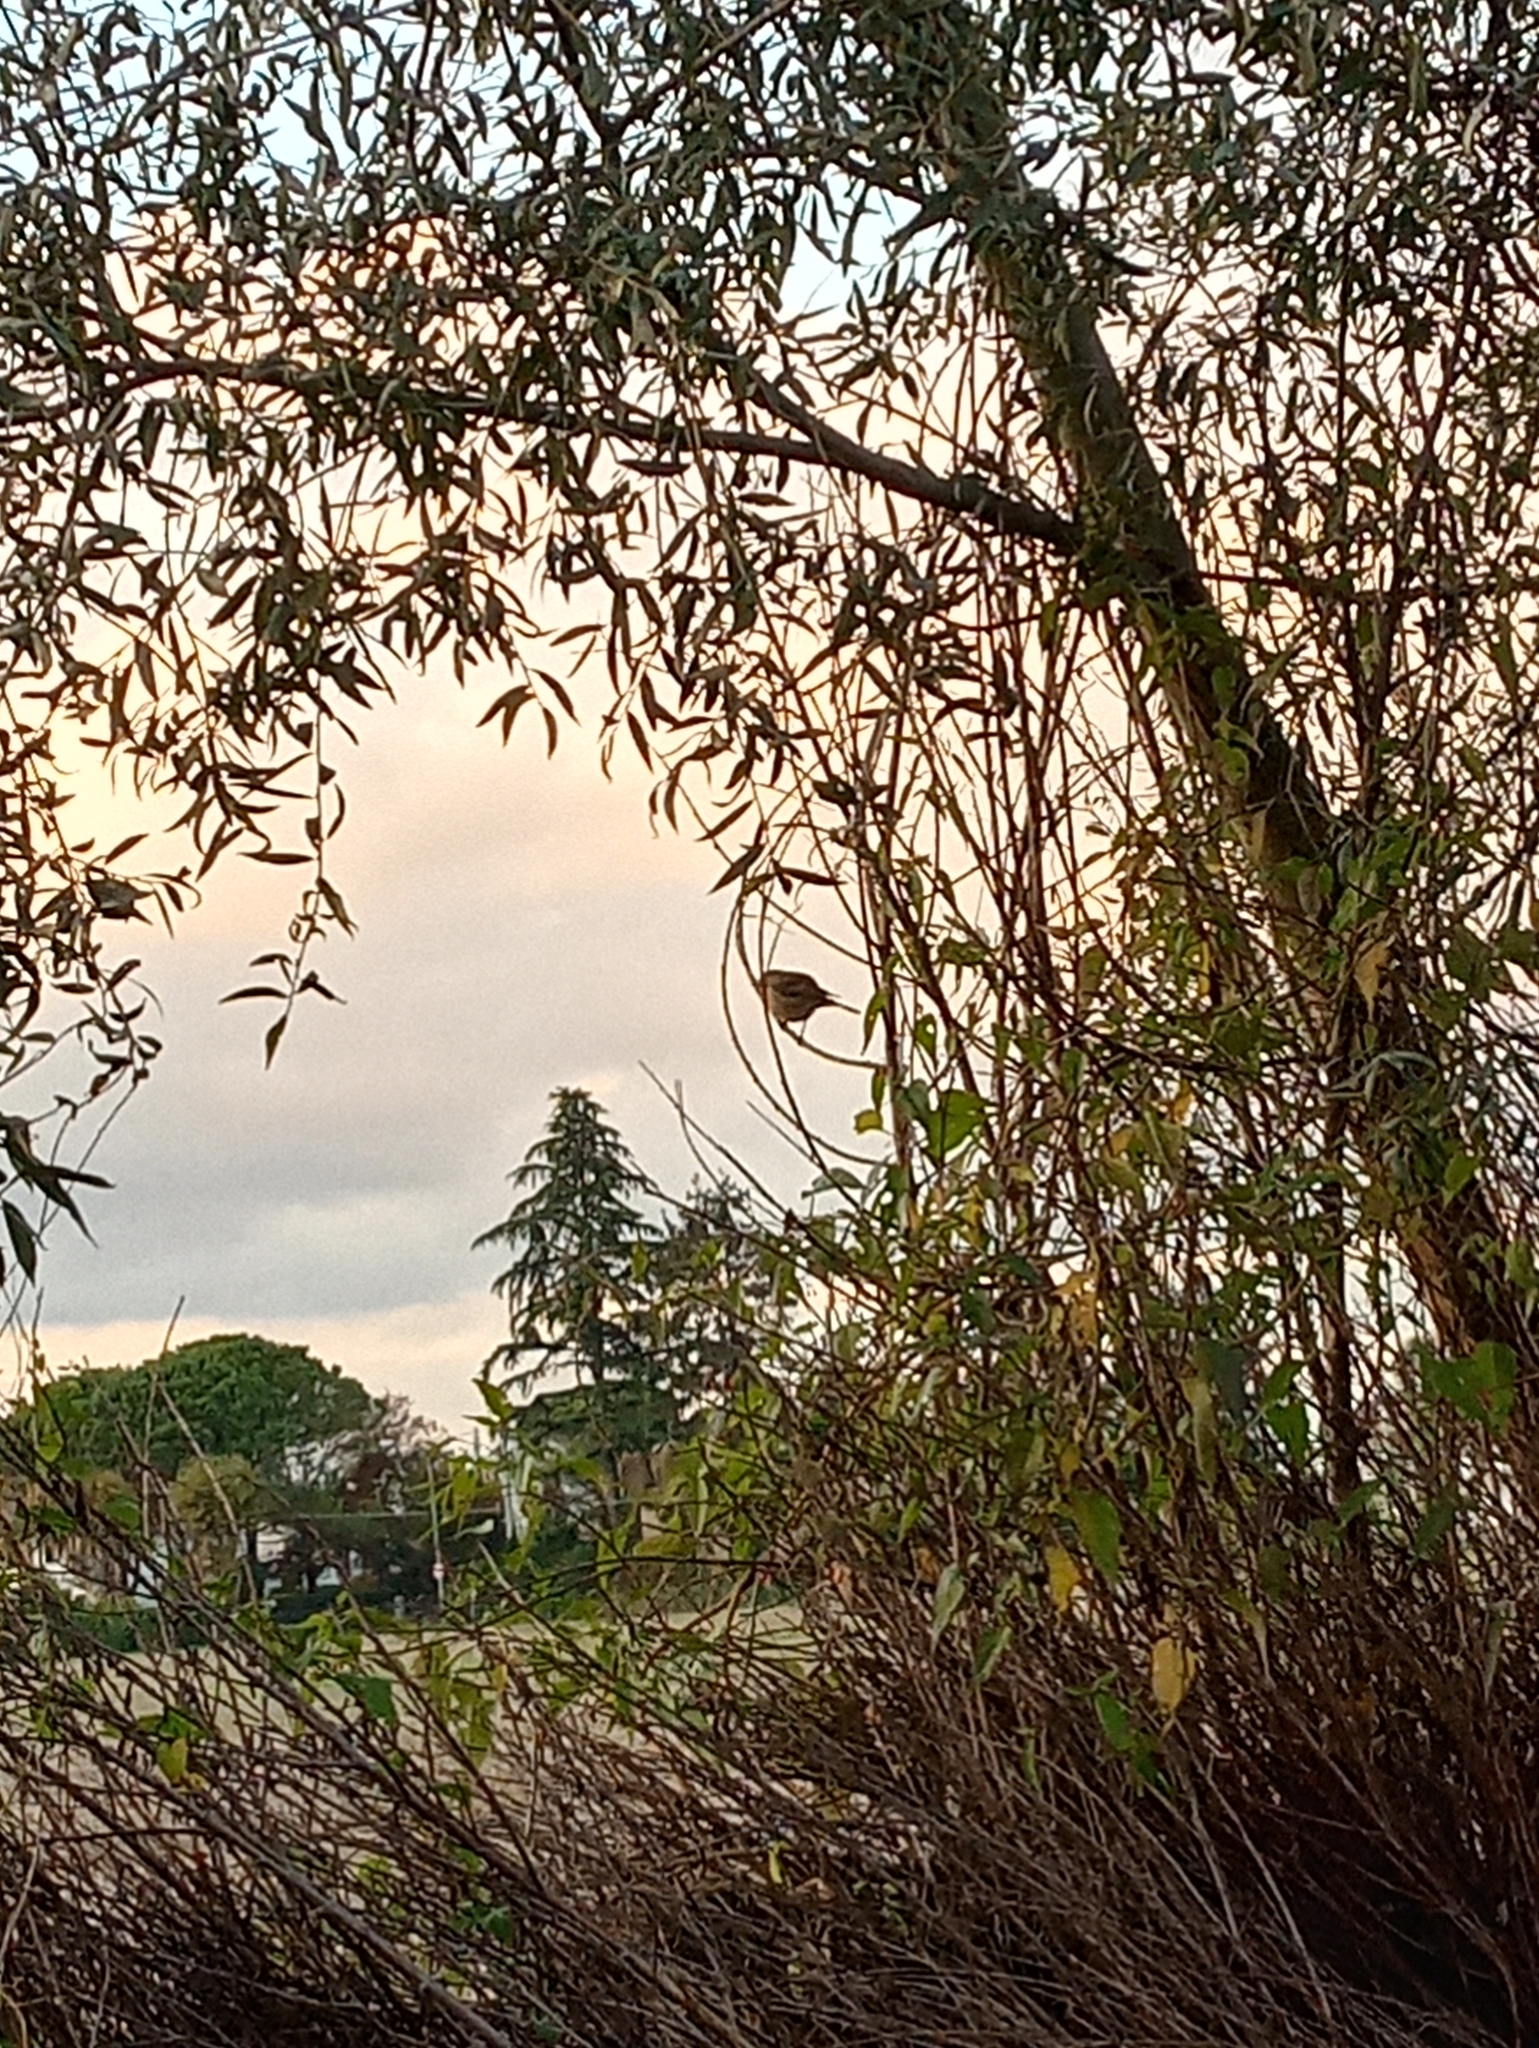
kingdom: Animalia
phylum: Chordata
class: Aves
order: Passeriformes
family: Muscicapidae
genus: Erithacus
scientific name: Erithacus rubecula
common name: European robin
